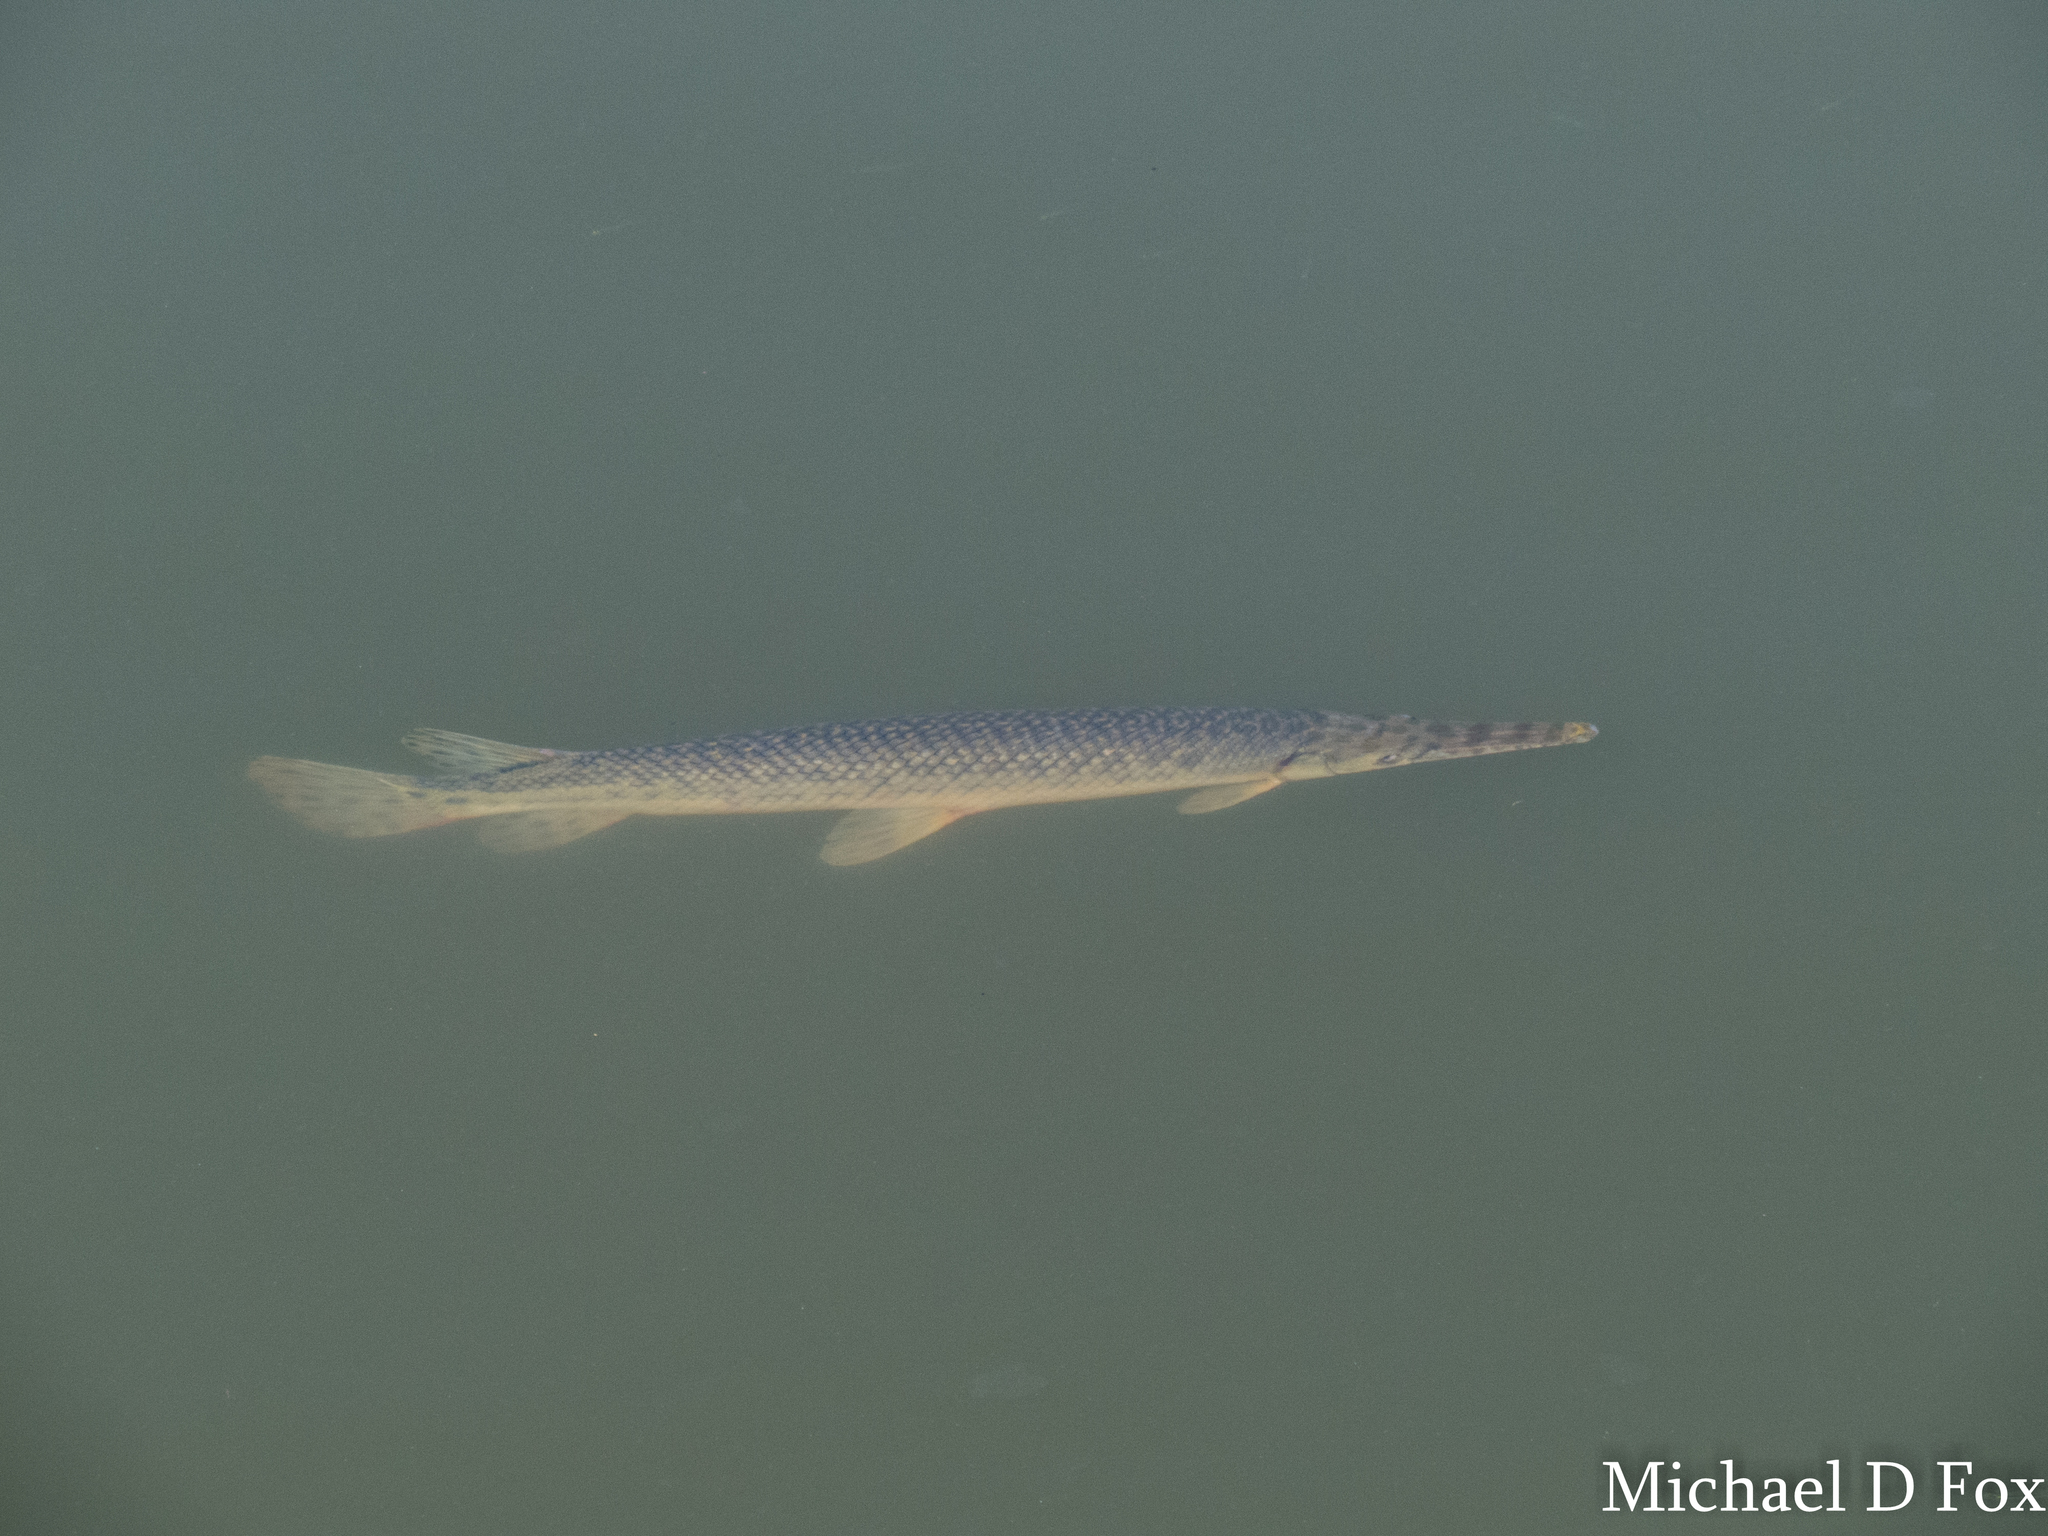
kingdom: Animalia
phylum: Chordata
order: Lepisosteiformes
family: Lepisosteidae
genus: Lepisosteus
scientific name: Lepisosteus oculatus
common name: Spotted gar
